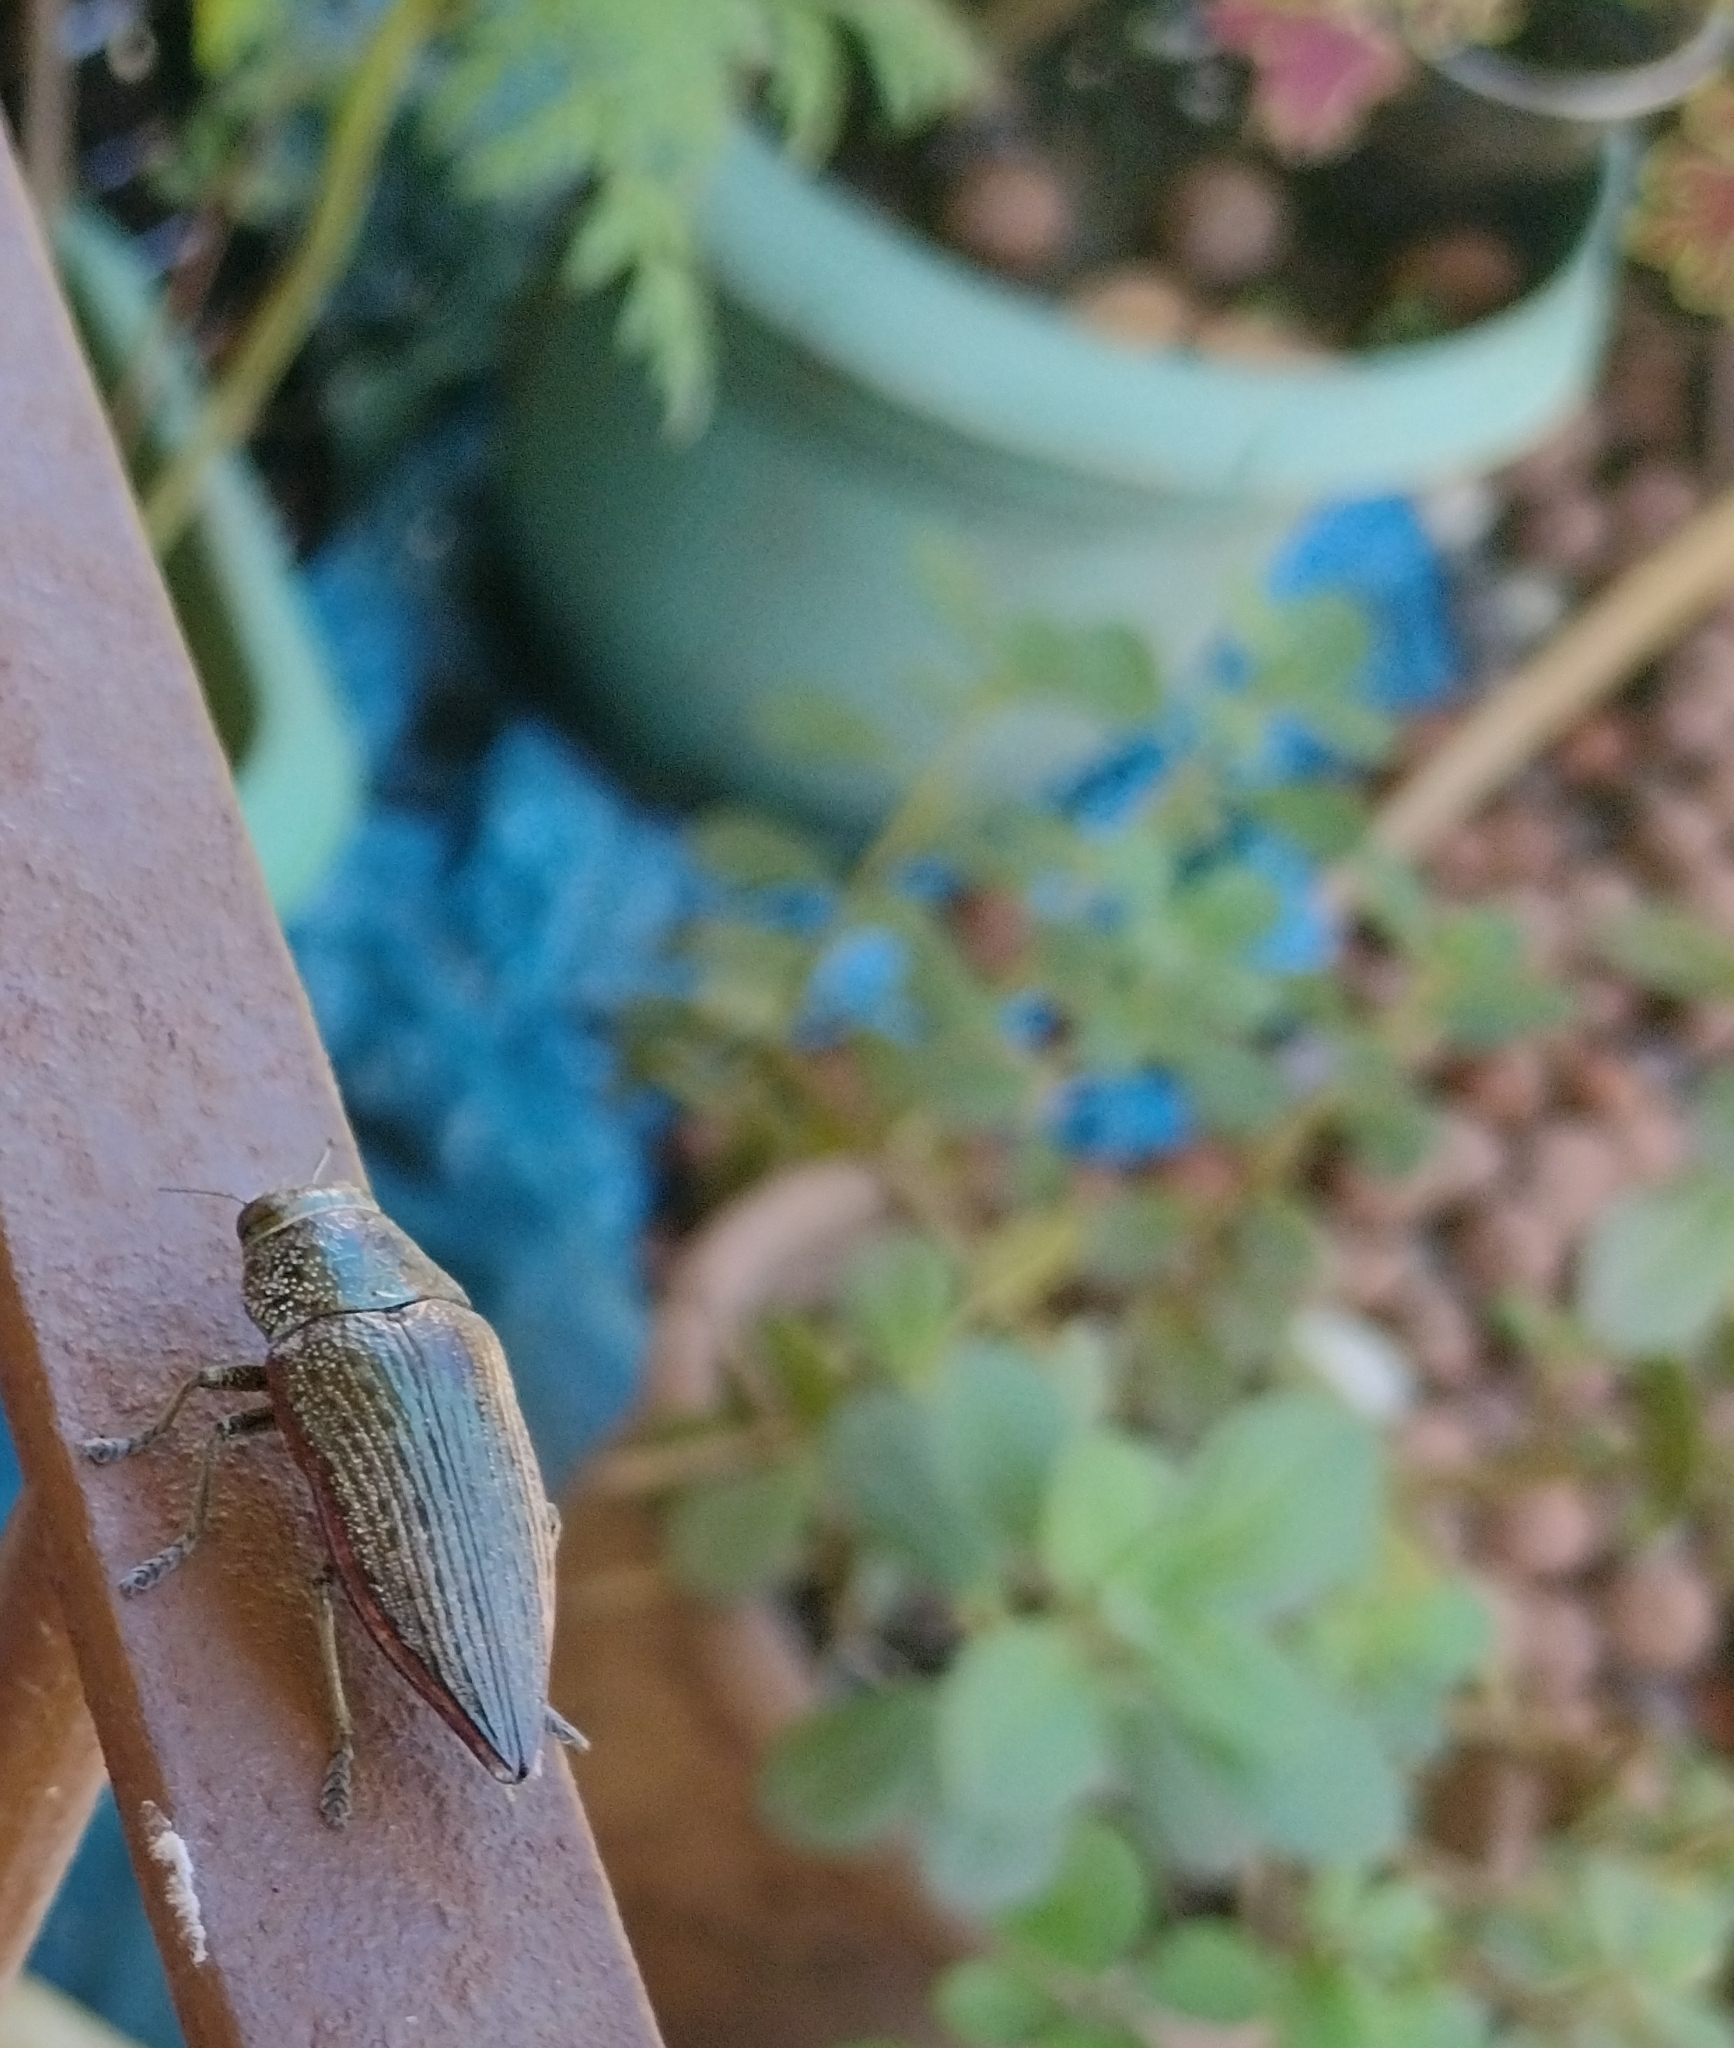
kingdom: Animalia
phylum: Arthropoda
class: Insecta
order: Coleoptera
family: Buprestidae
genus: Lampetis
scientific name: Lampetis roseocarinata
